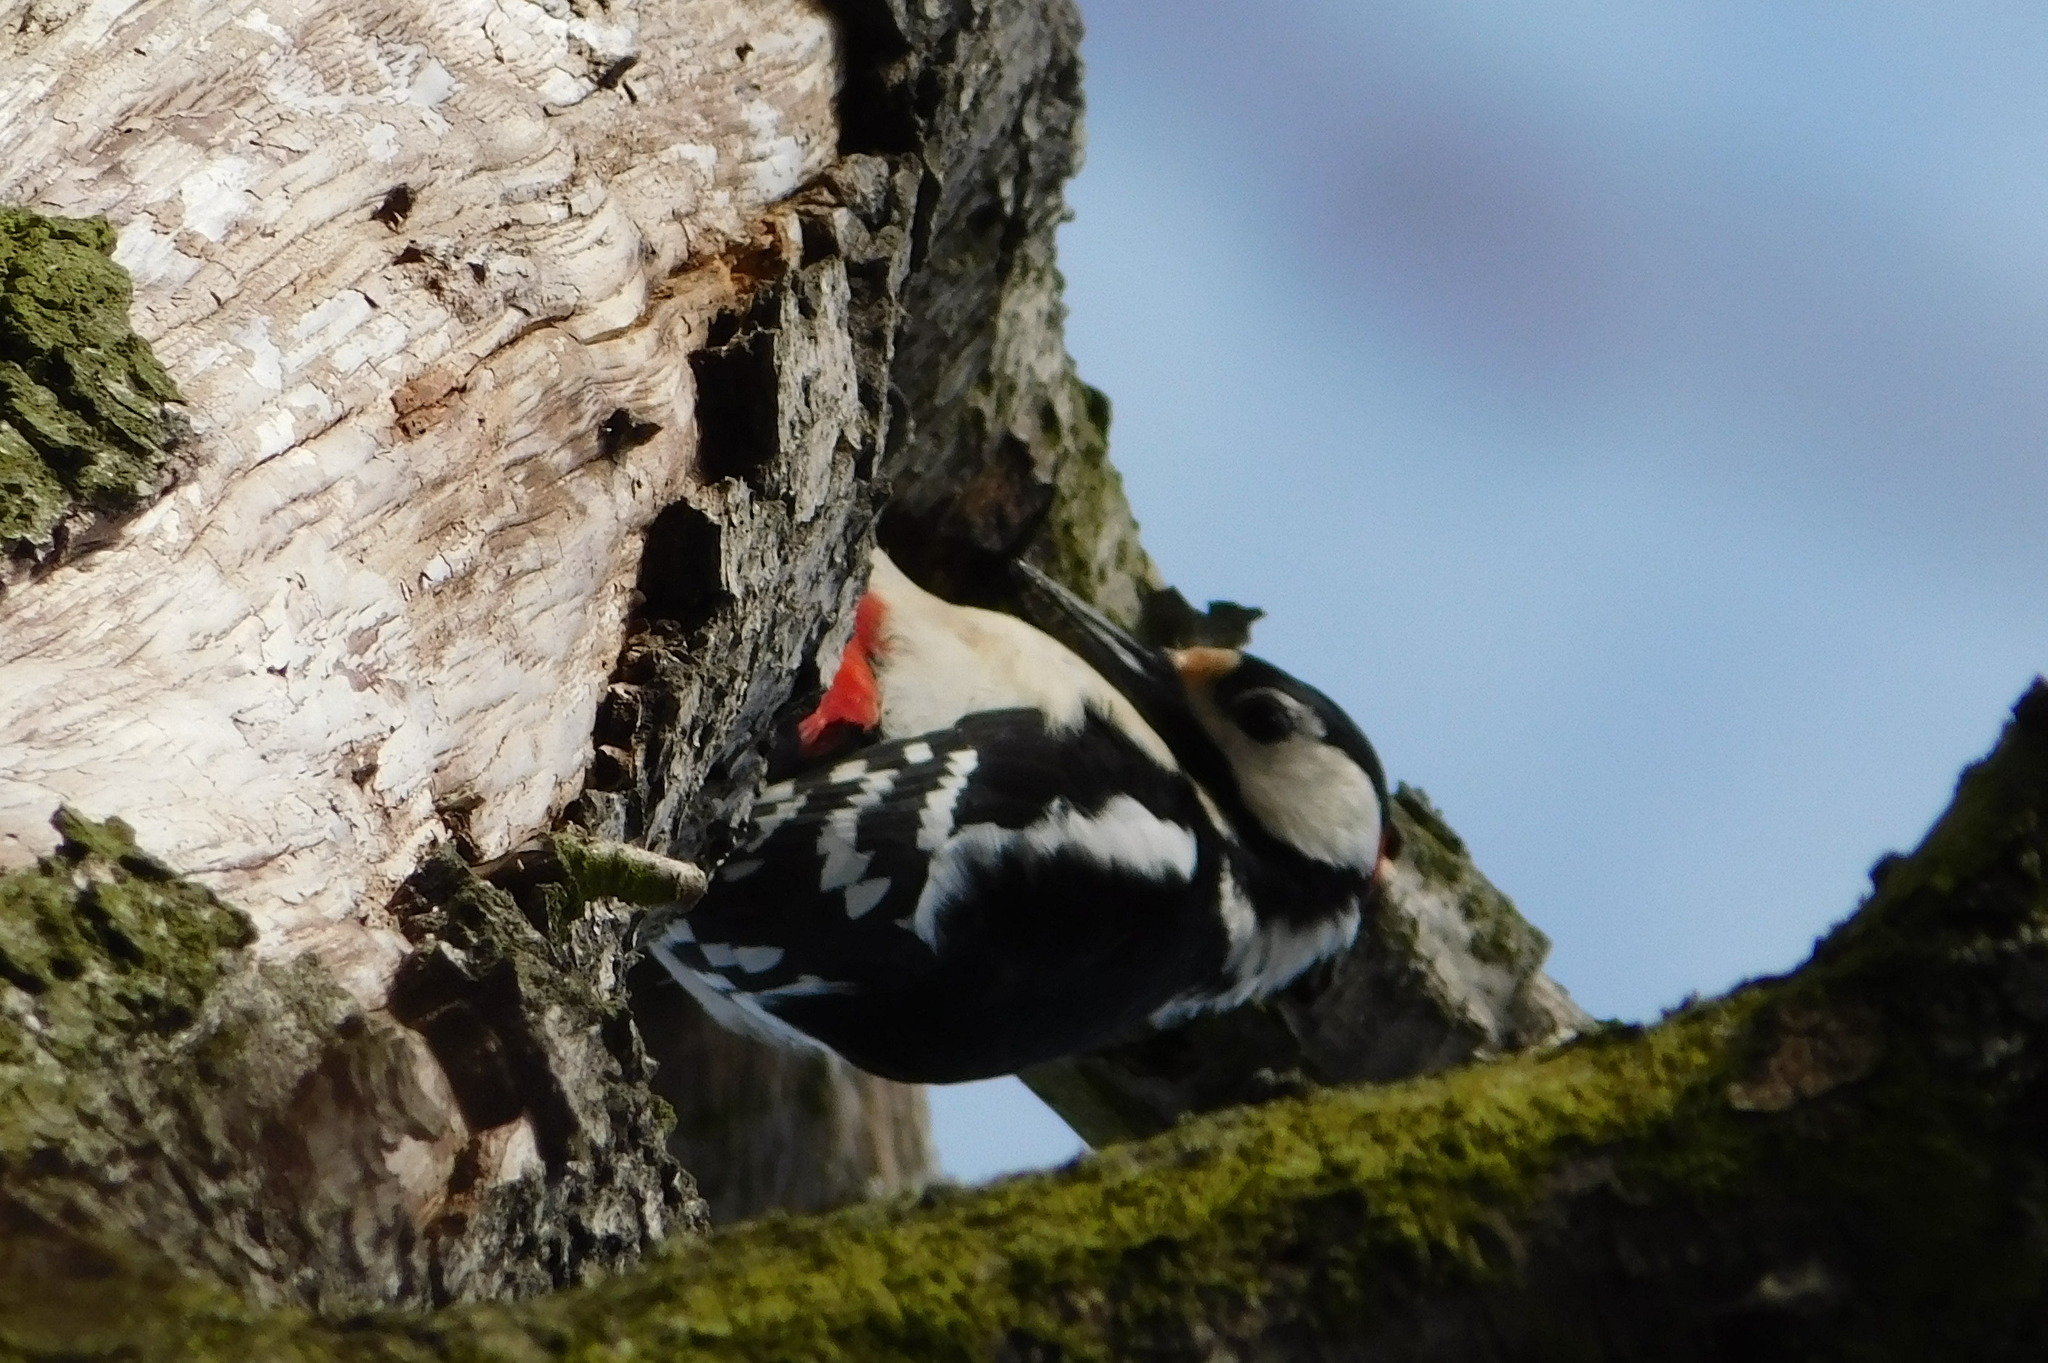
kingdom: Animalia
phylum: Chordata
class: Aves
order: Piciformes
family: Picidae
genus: Dendrocopos
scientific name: Dendrocopos major
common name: Great spotted woodpecker
